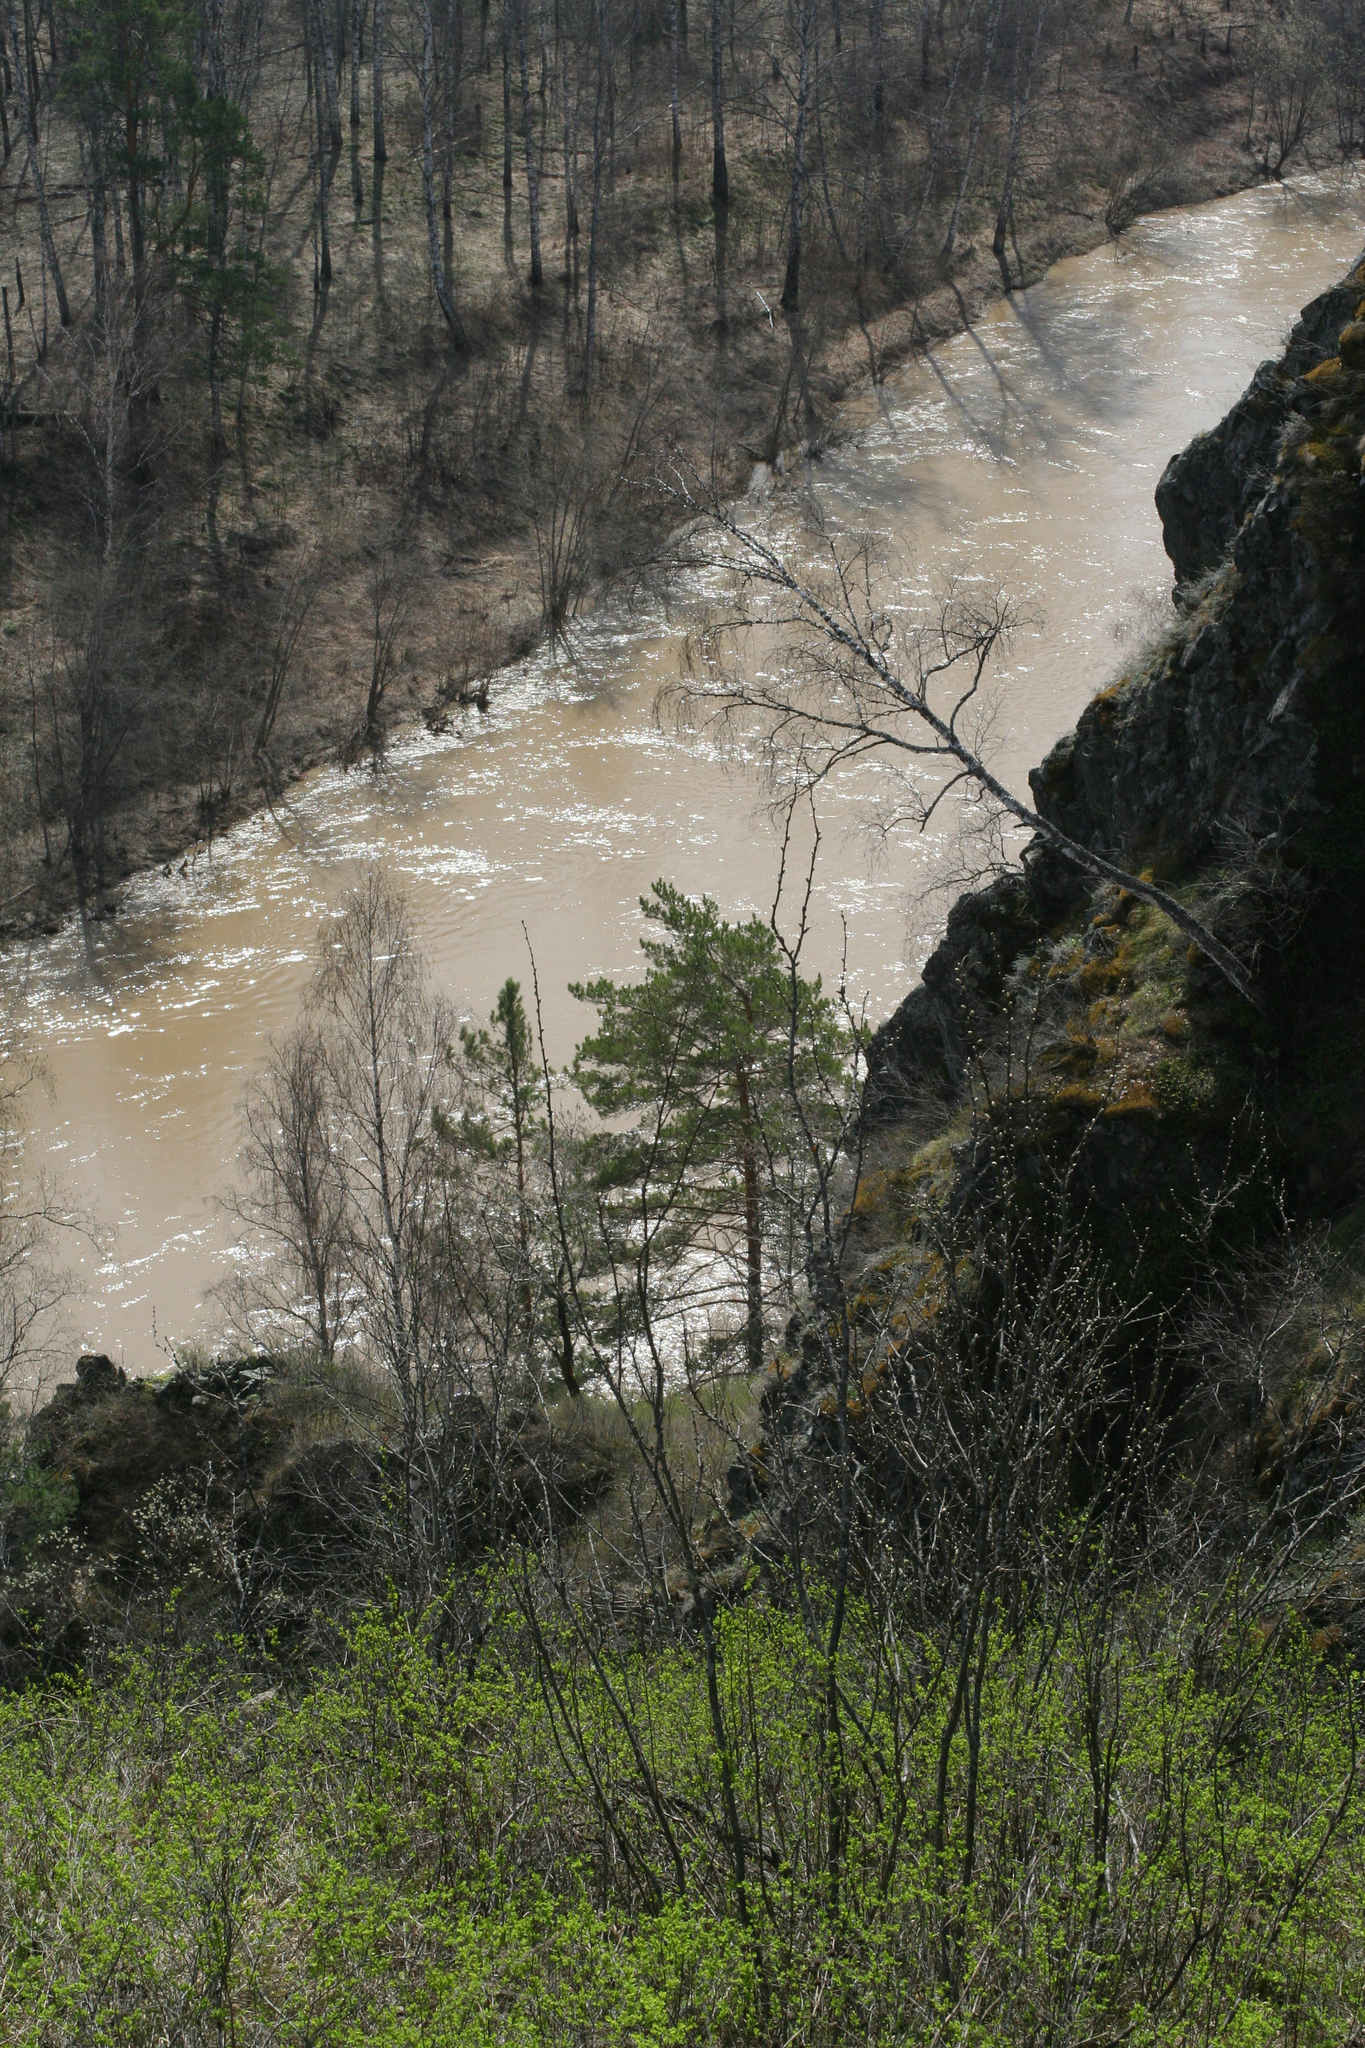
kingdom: Plantae
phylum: Tracheophyta
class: Pinopsida
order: Pinales
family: Pinaceae
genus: Pinus
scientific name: Pinus sylvestris
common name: Scots pine
